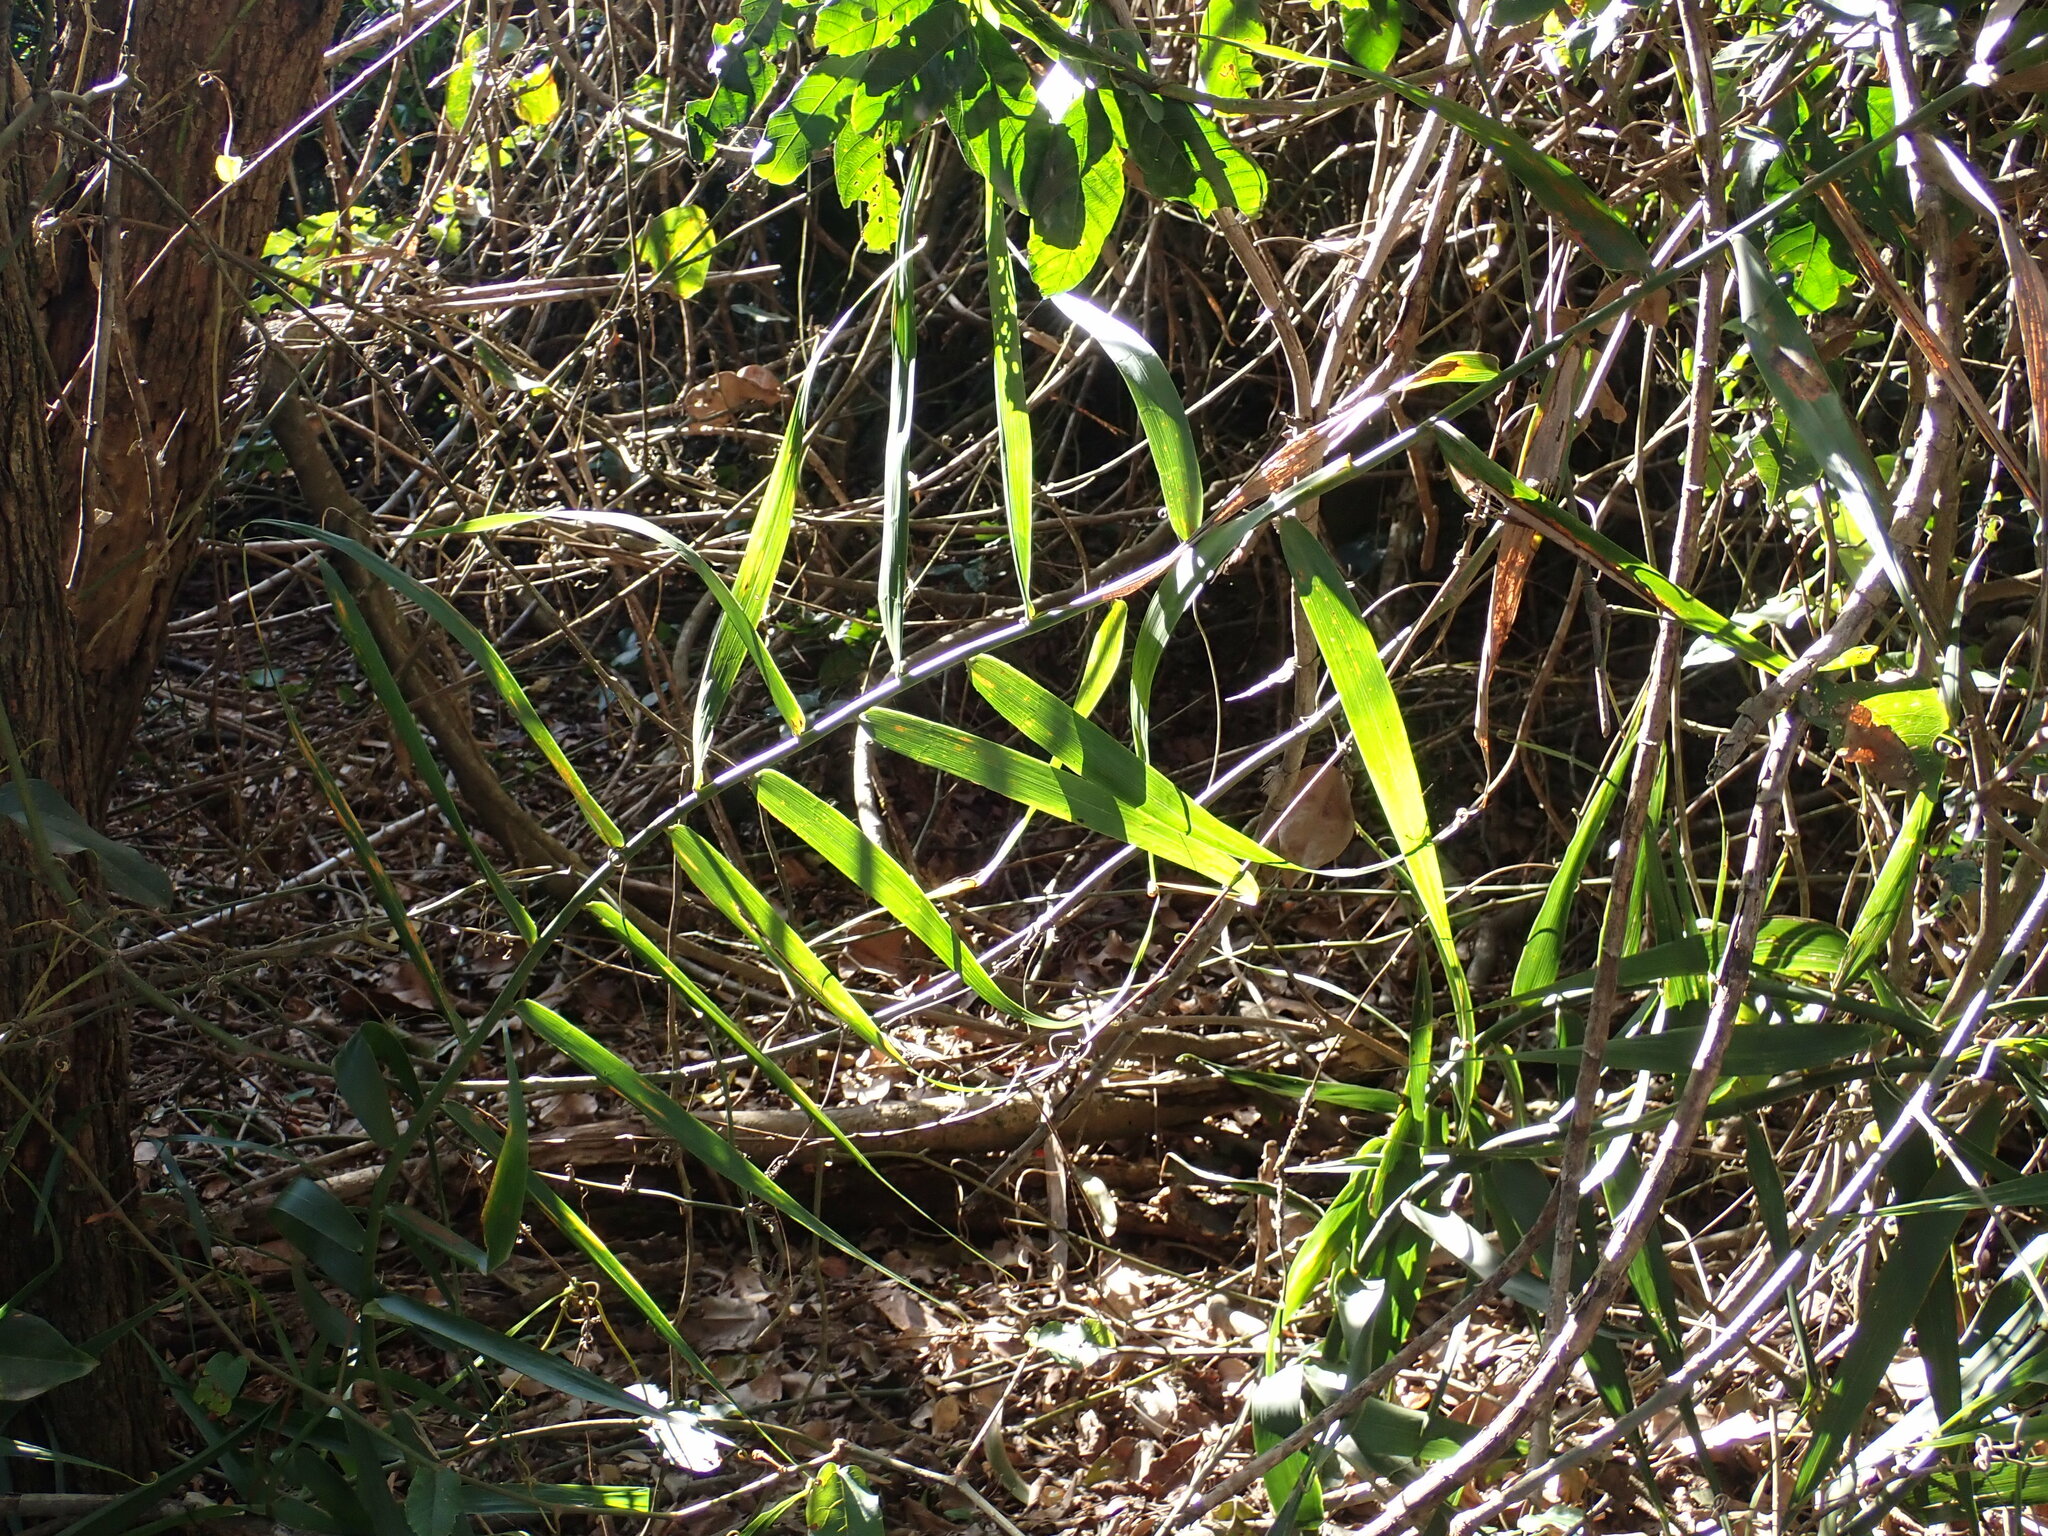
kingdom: Plantae
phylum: Tracheophyta
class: Liliopsida
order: Poales
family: Flagellariaceae
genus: Flagellaria
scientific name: Flagellaria indica
